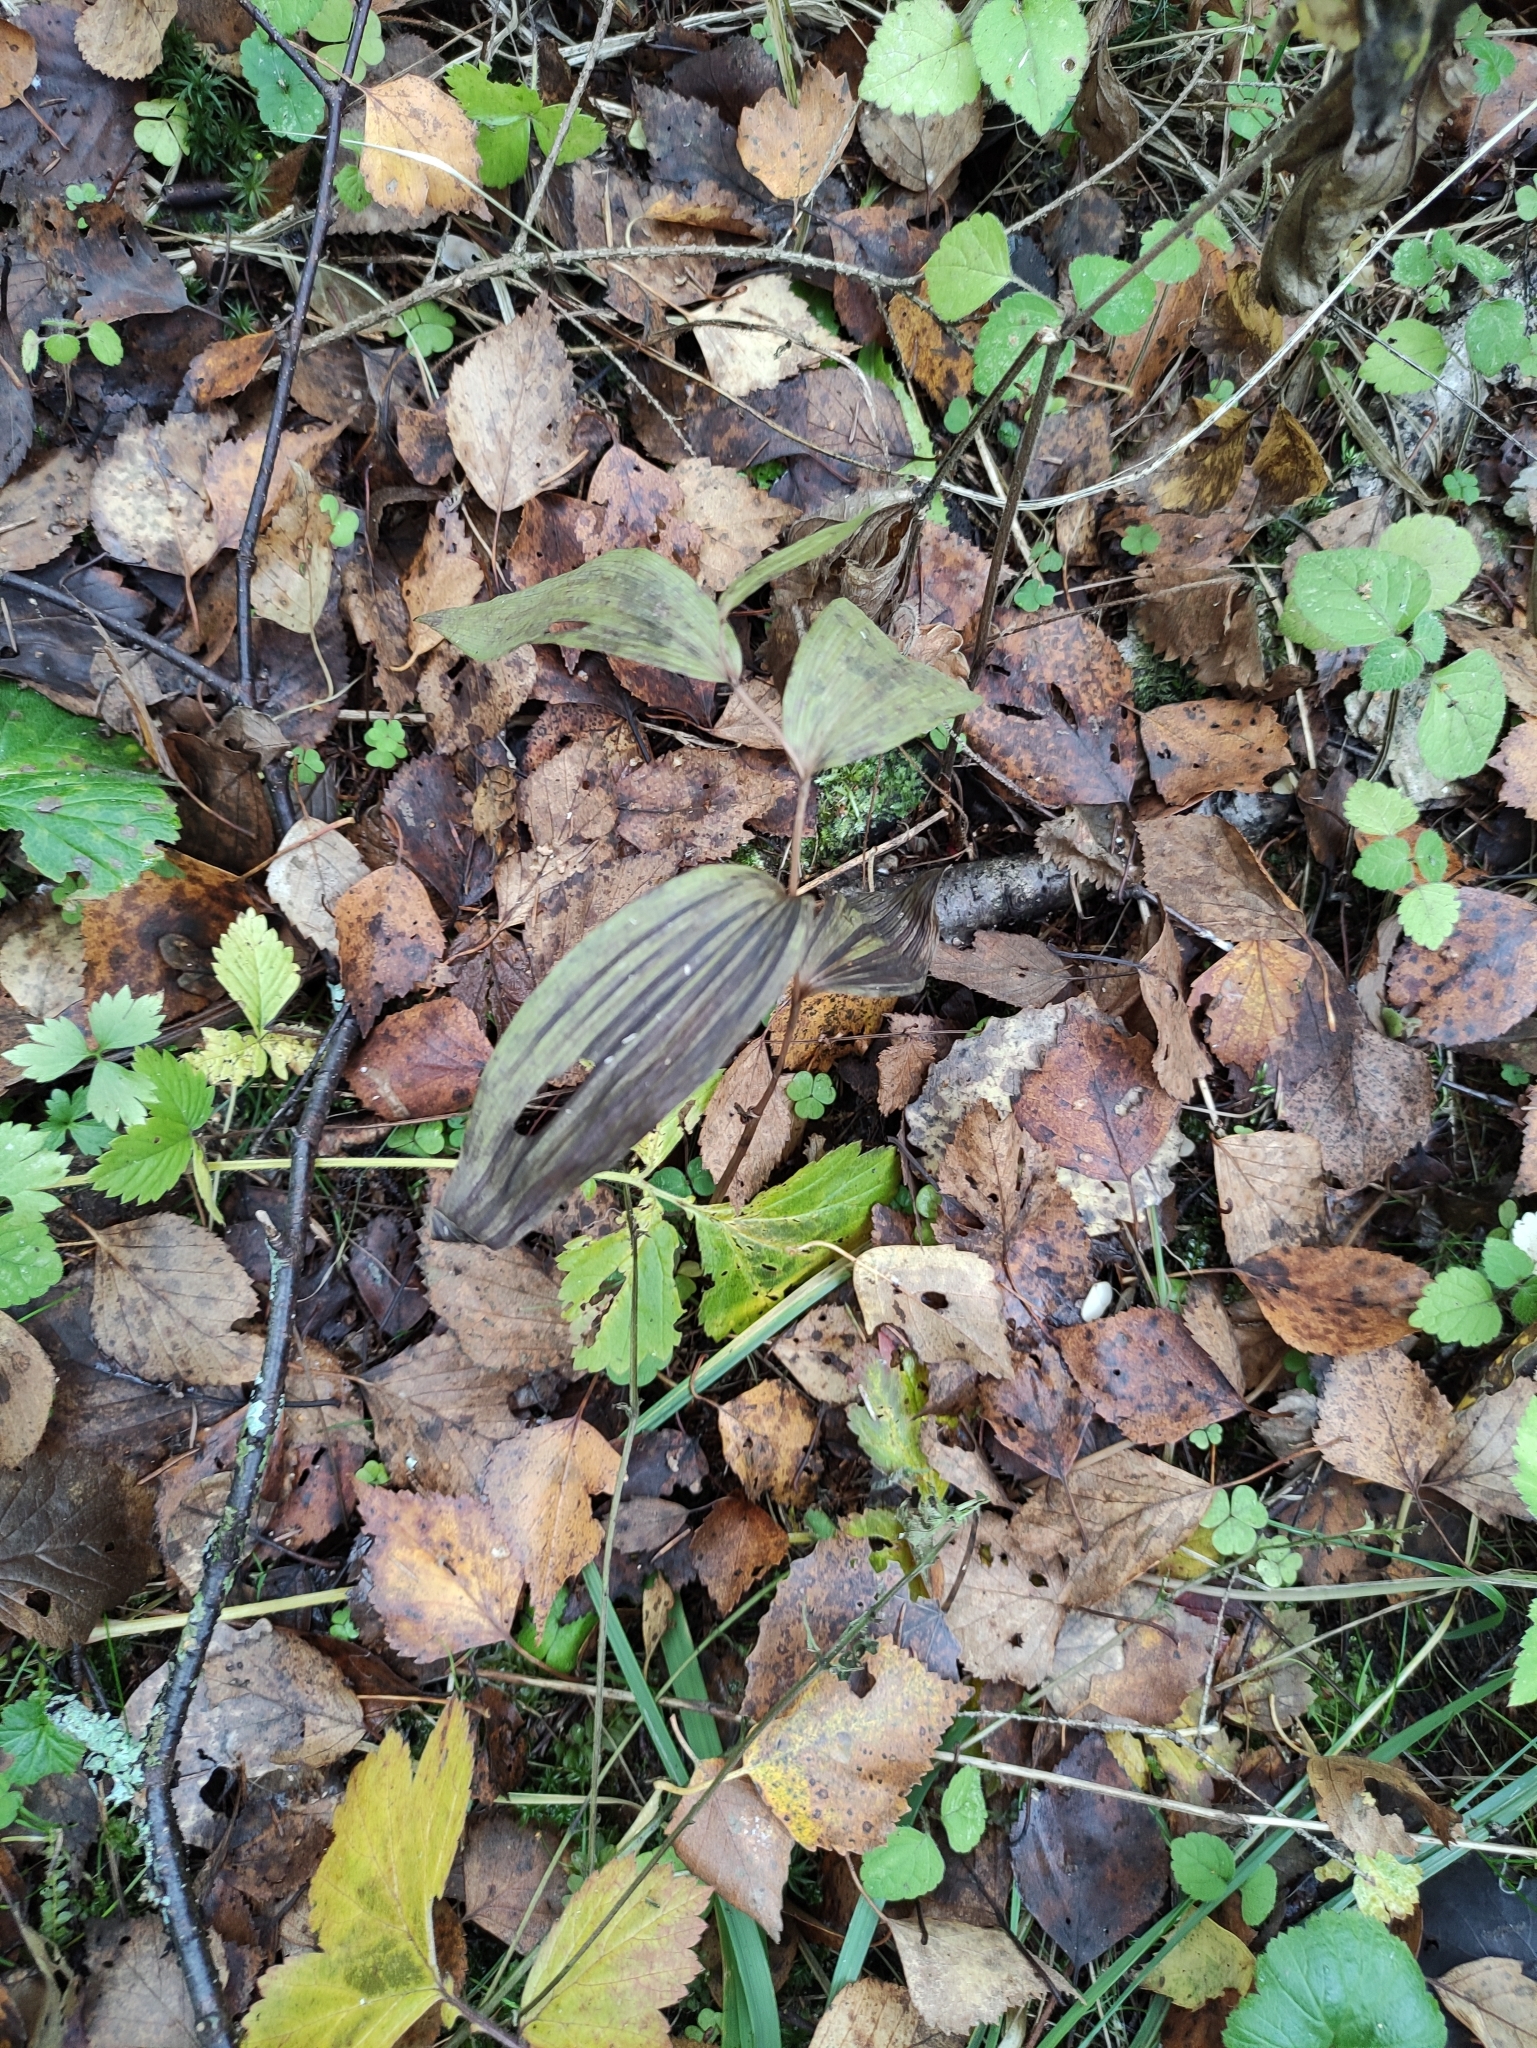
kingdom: Plantae
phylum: Tracheophyta
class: Liliopsida
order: Asparagales
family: Orchidaceae
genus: Epipactis
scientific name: Epipactis helleborine
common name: Broad-leaved helleborine
